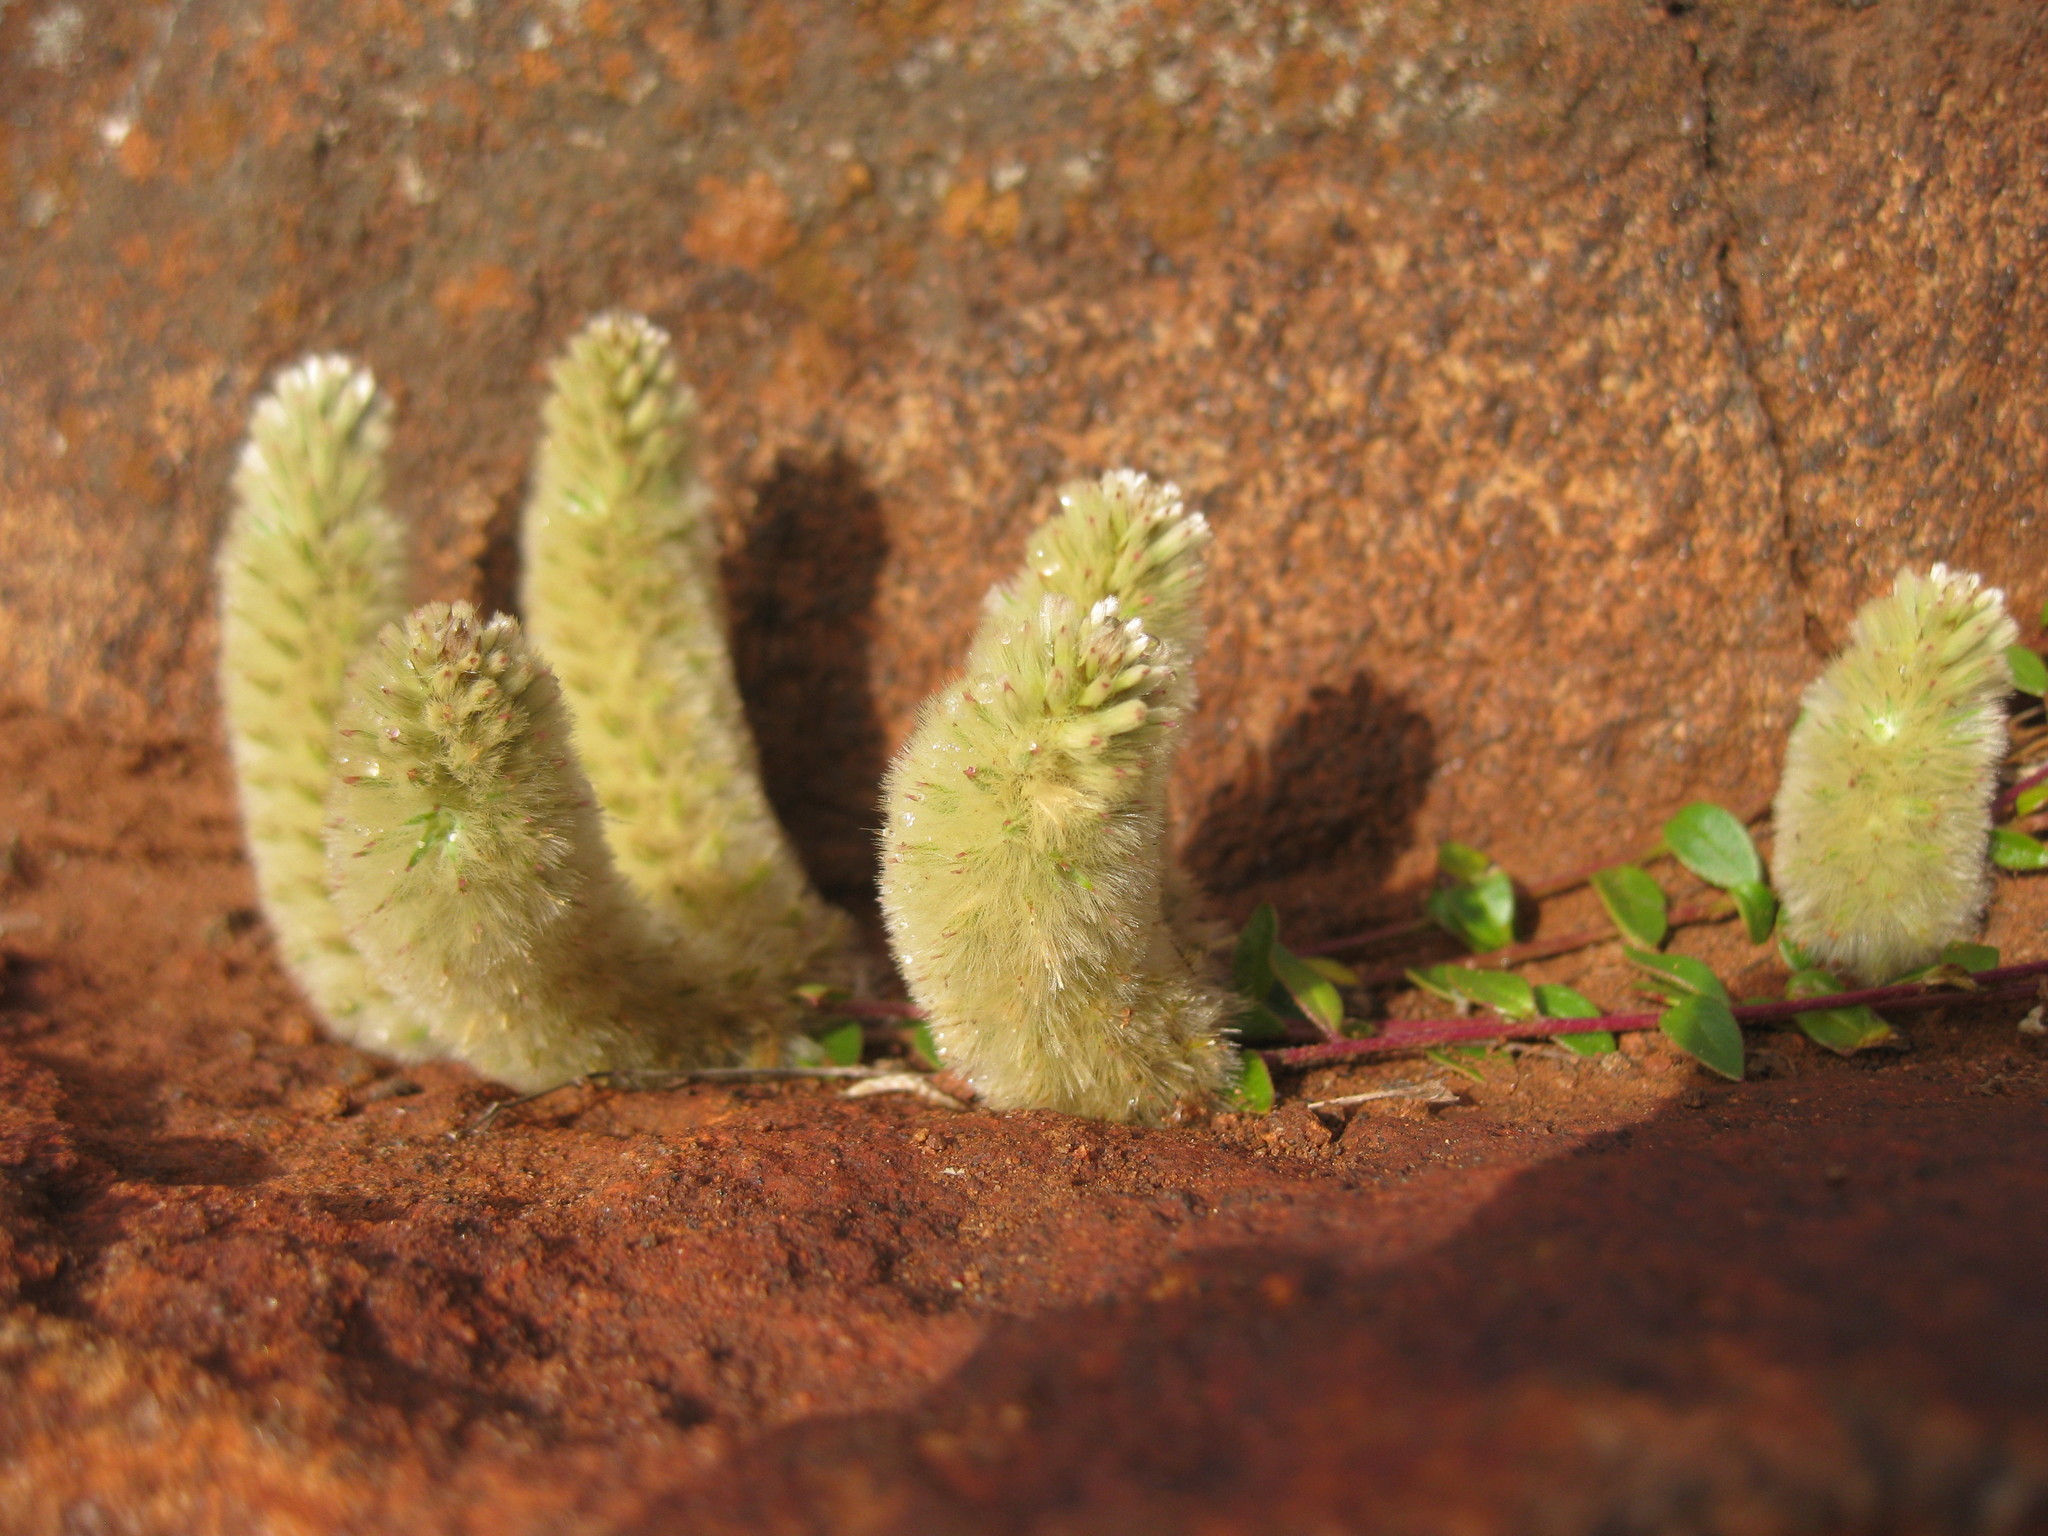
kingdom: Plantae
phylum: Tracheophyta
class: Magnoliopsida
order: Caryophyllales
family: Amaranthaceae
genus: Ptilotus
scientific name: Ptilotus spathulatus
